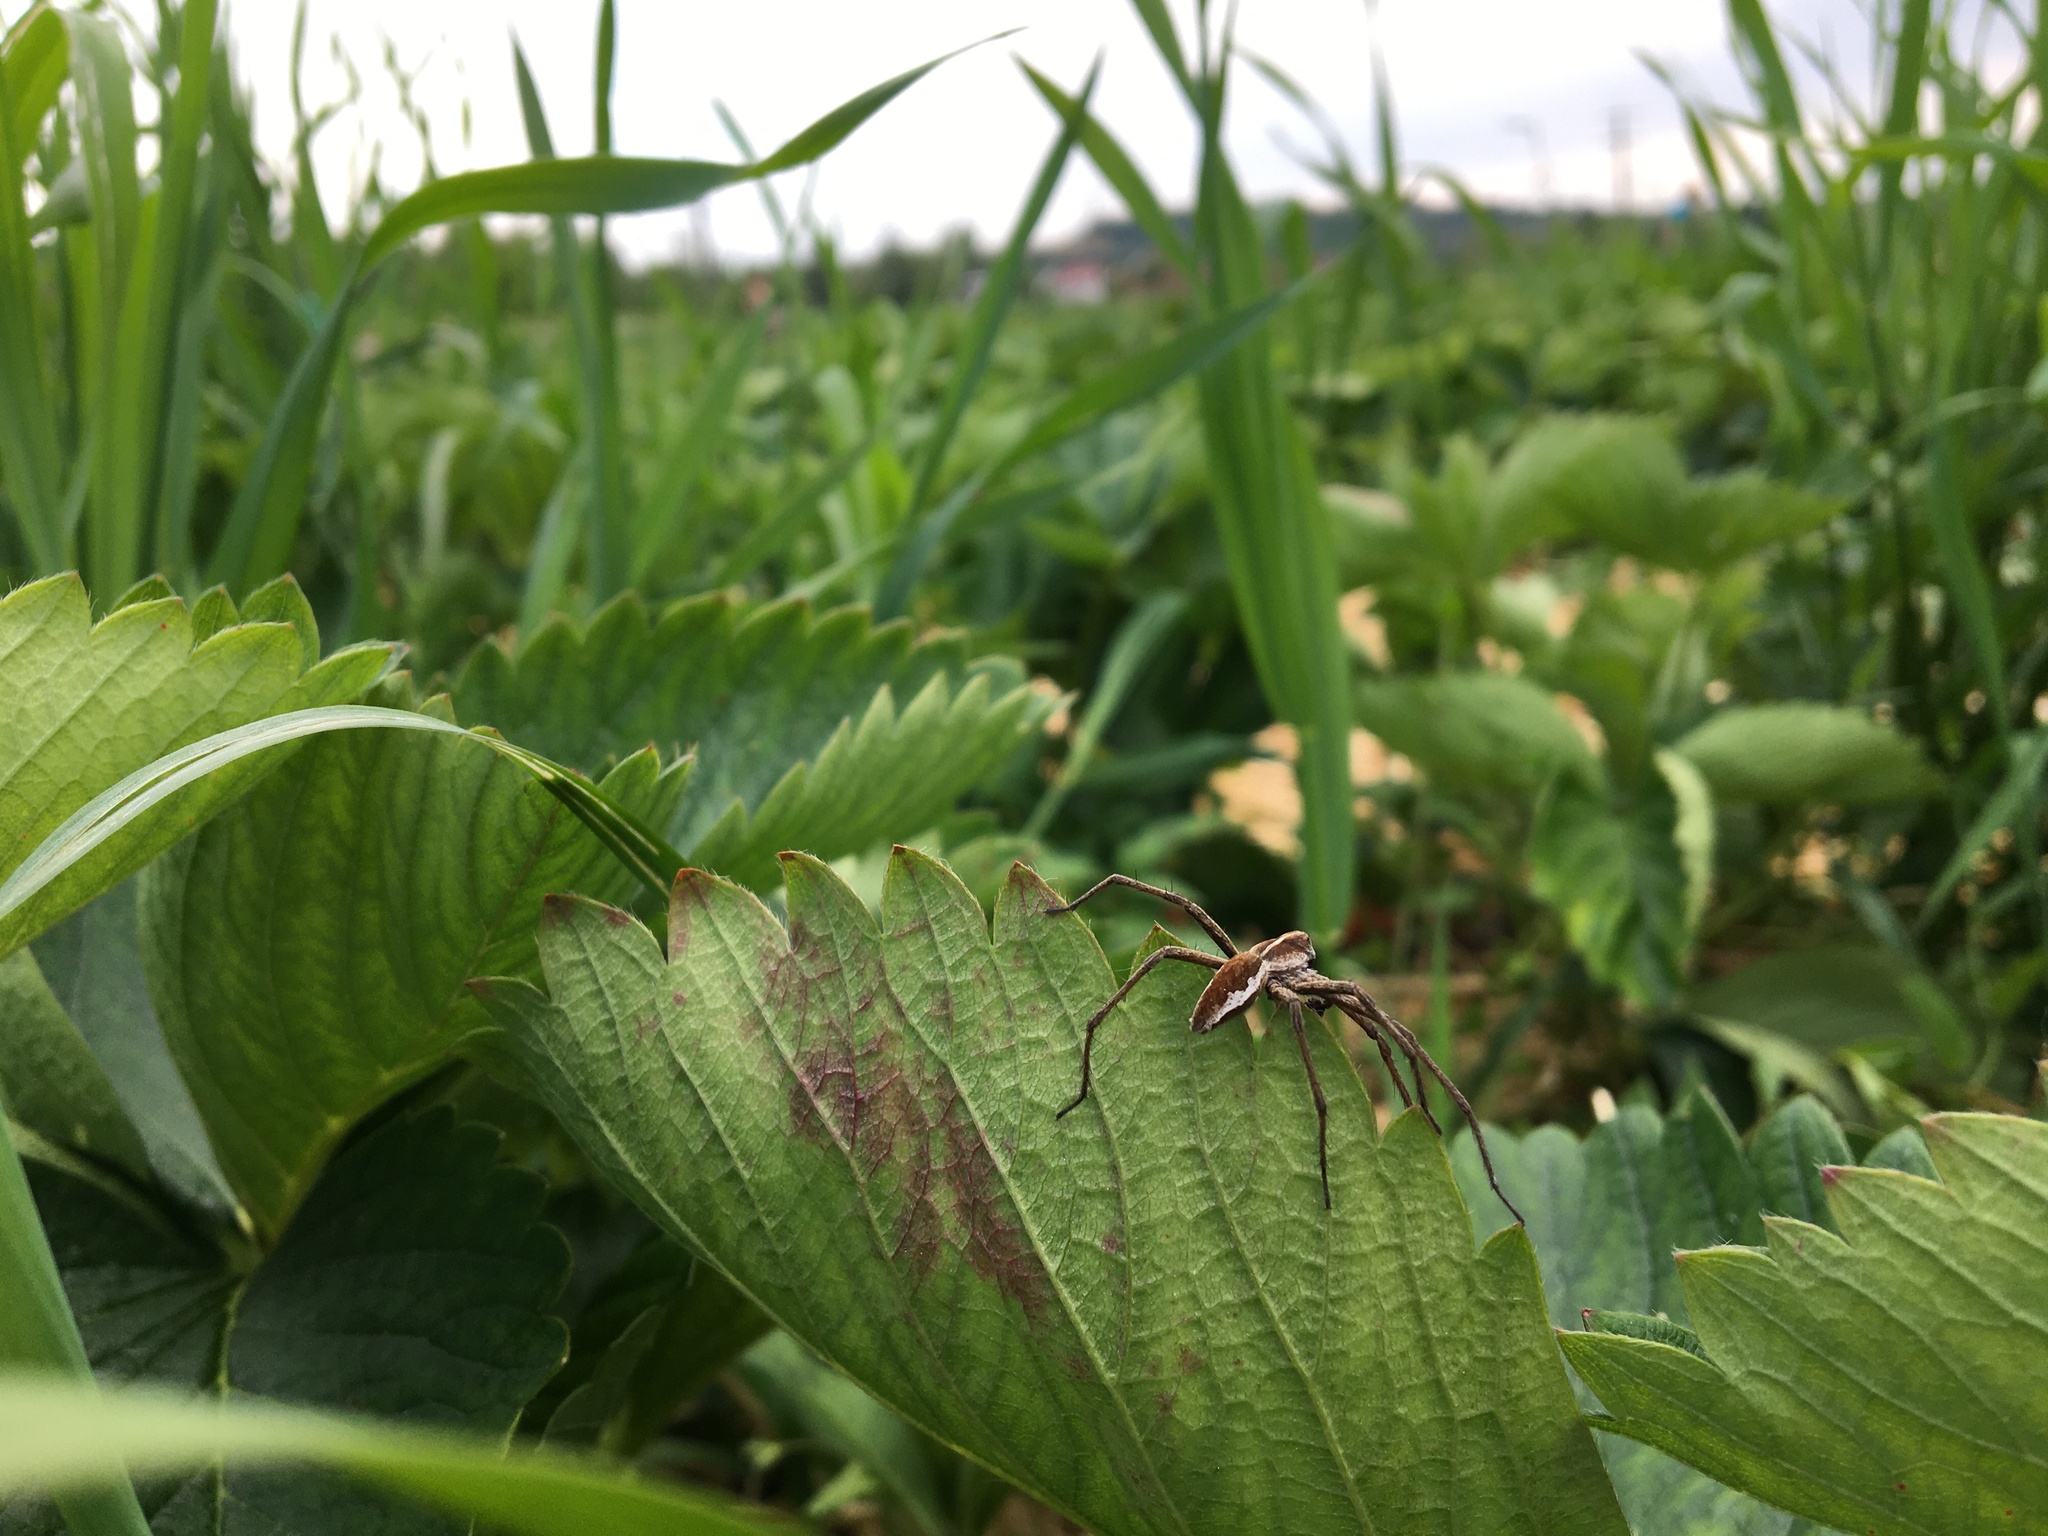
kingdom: Animalia
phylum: Arthropoda
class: Arachnida
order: Araneae
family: Pisauridae
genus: Pisaura
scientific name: Pisaura mirabilis
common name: Tent spider
